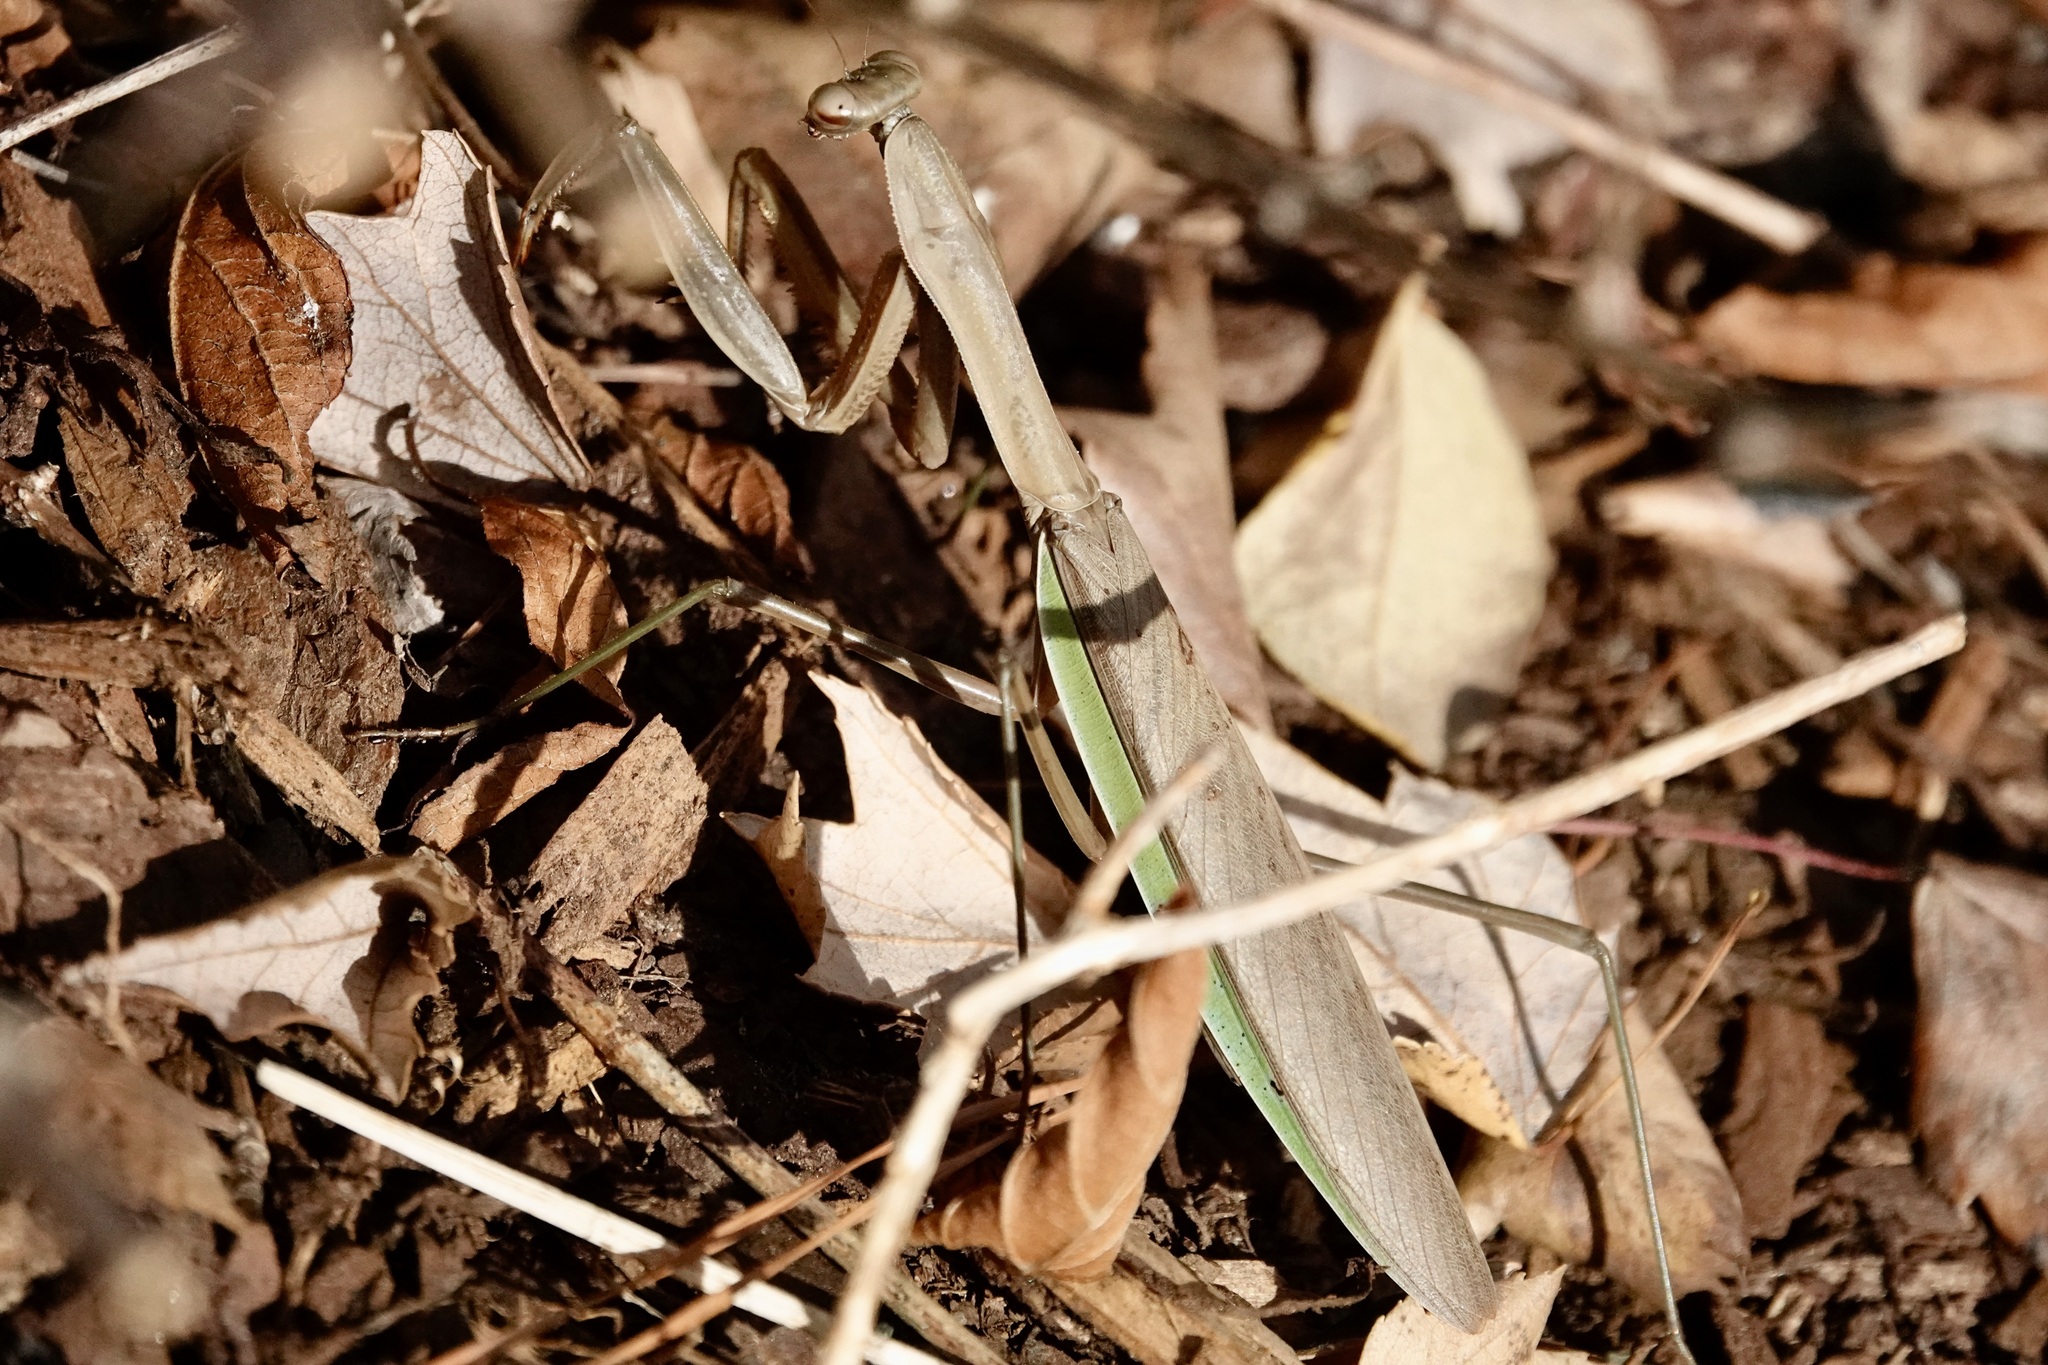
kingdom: Animalia
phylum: Arthropoda
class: Insecta
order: Mantodea
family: Mantidae
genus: Tenodera
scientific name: Tenodera sinensis
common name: Chinese mantis
